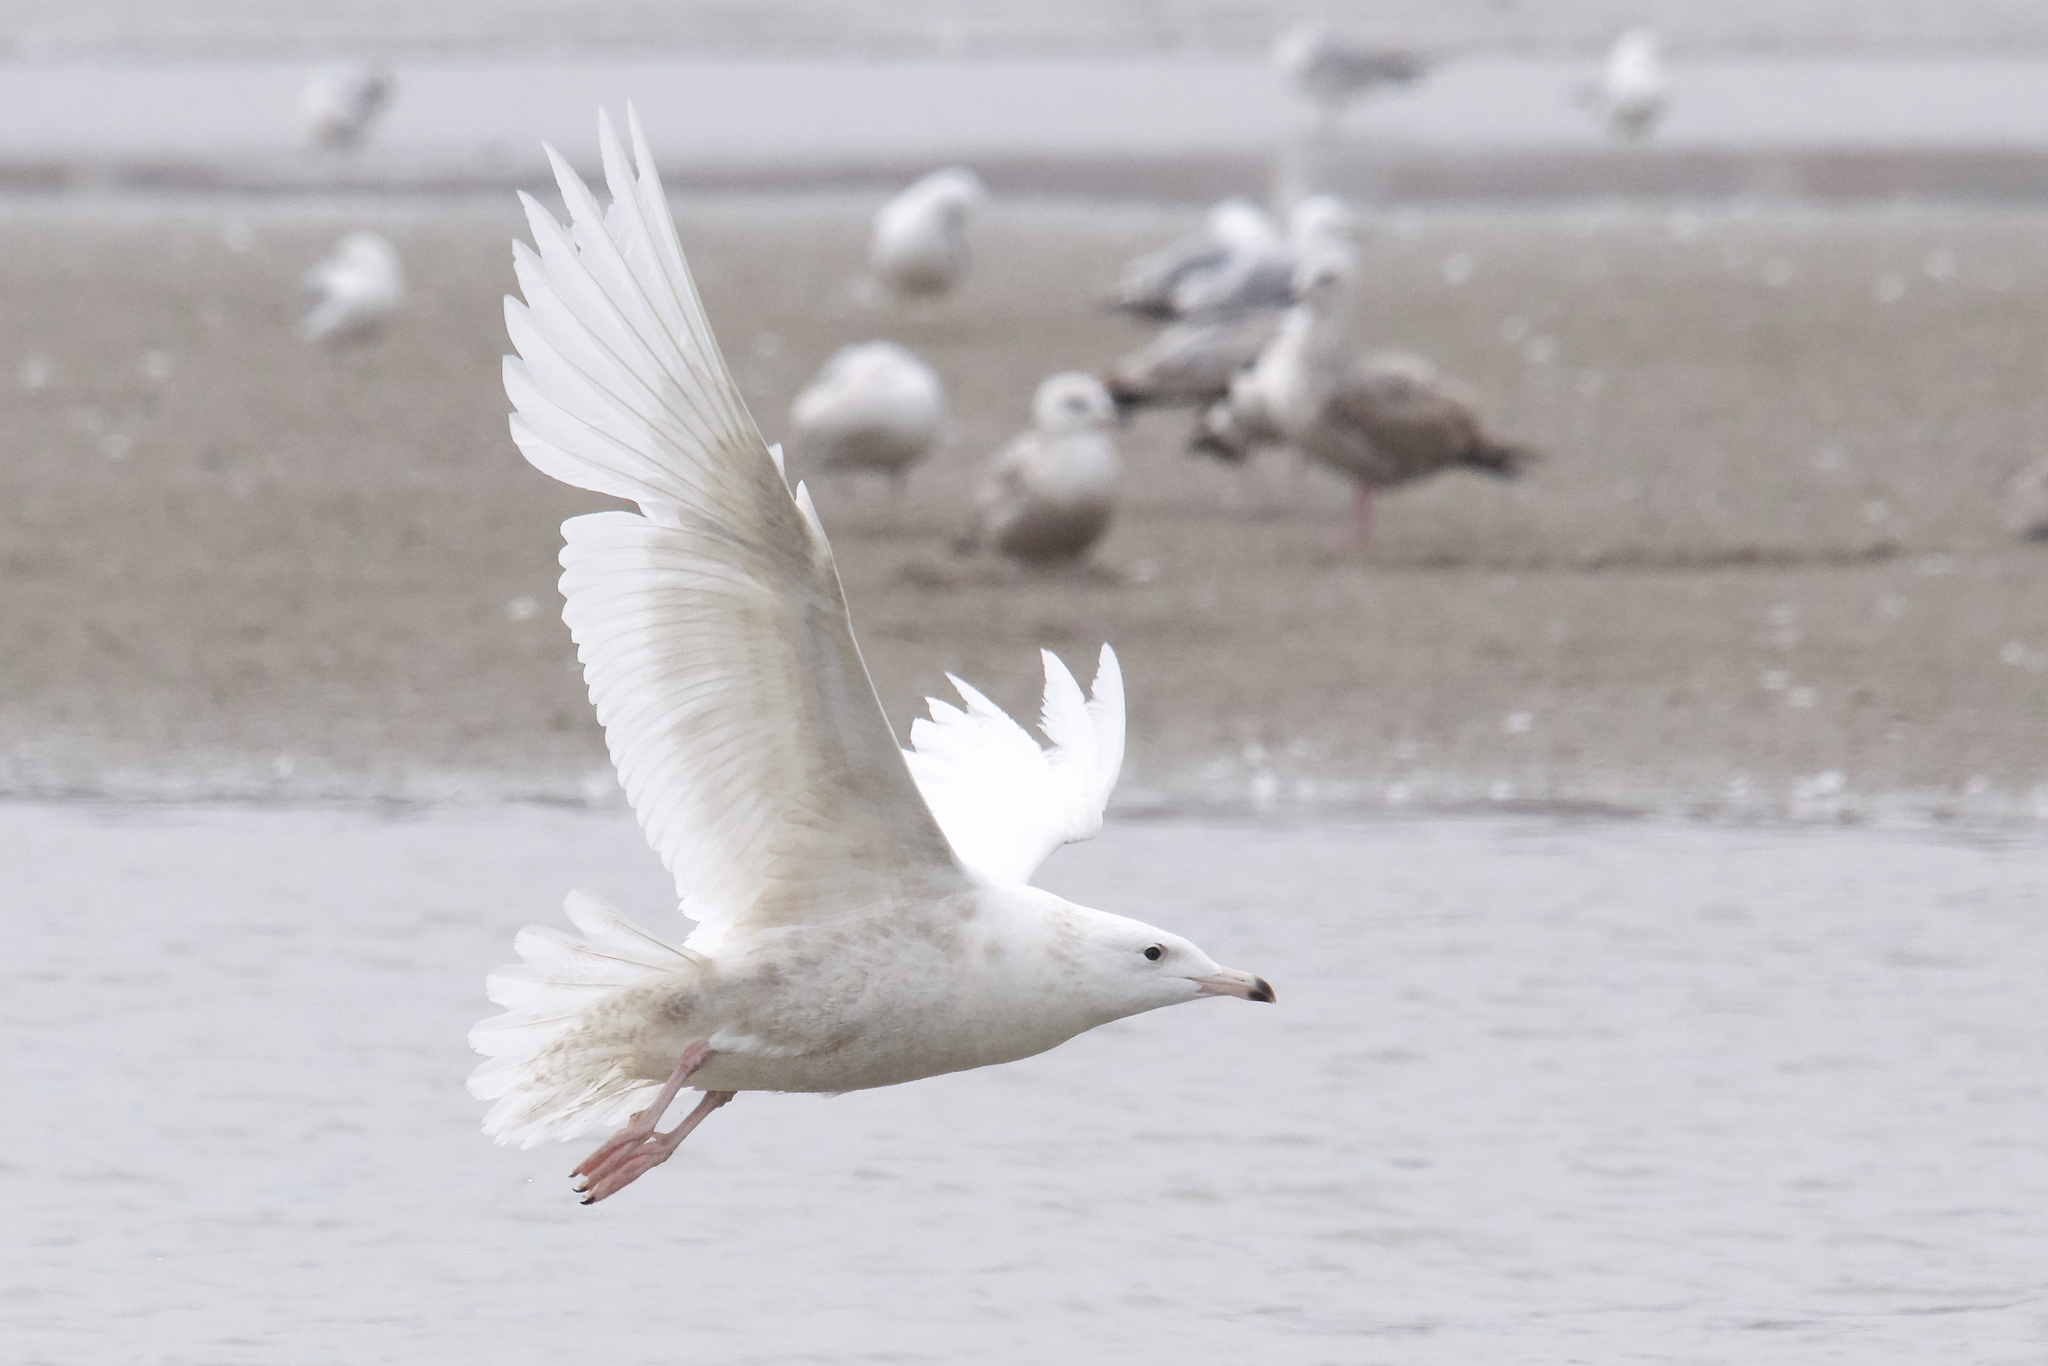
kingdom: Animalia
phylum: Chordata
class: Aves
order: Charadriiformes
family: Laridae
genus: Larus
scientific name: Larus hyperboreus
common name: Glaucous gull
